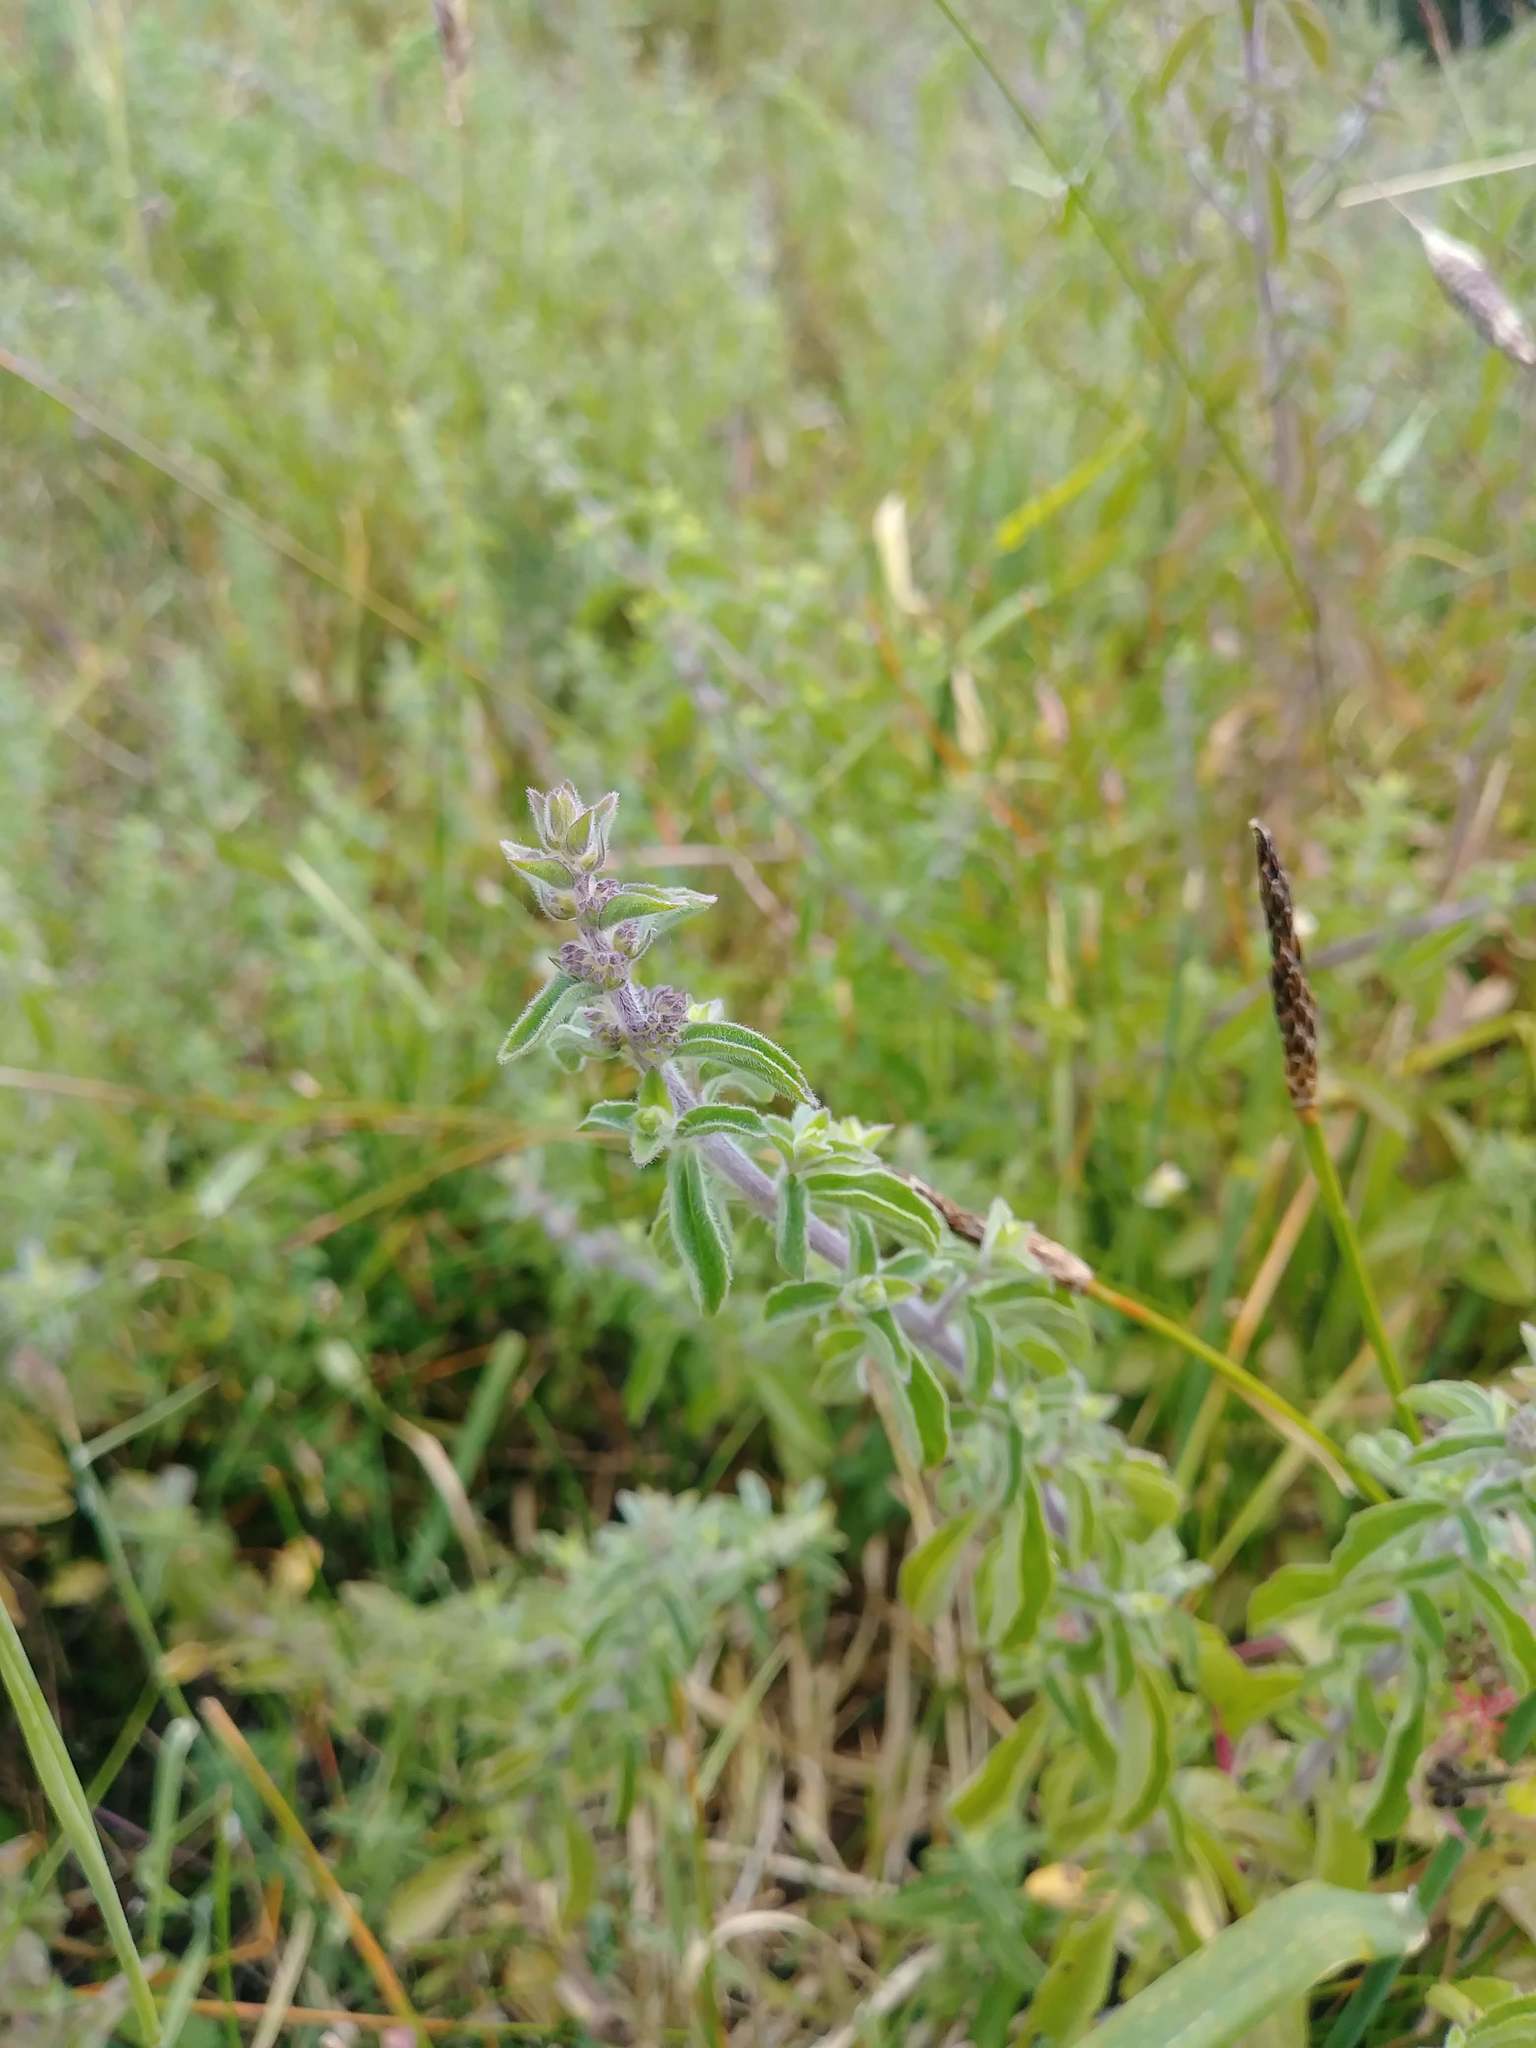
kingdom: Plantae
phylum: Tracheophyta
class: Magnoliopsida
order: Lamiales
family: Lamiaceae
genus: Mentha
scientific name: Mentha pulegium
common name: Pennyroyal
